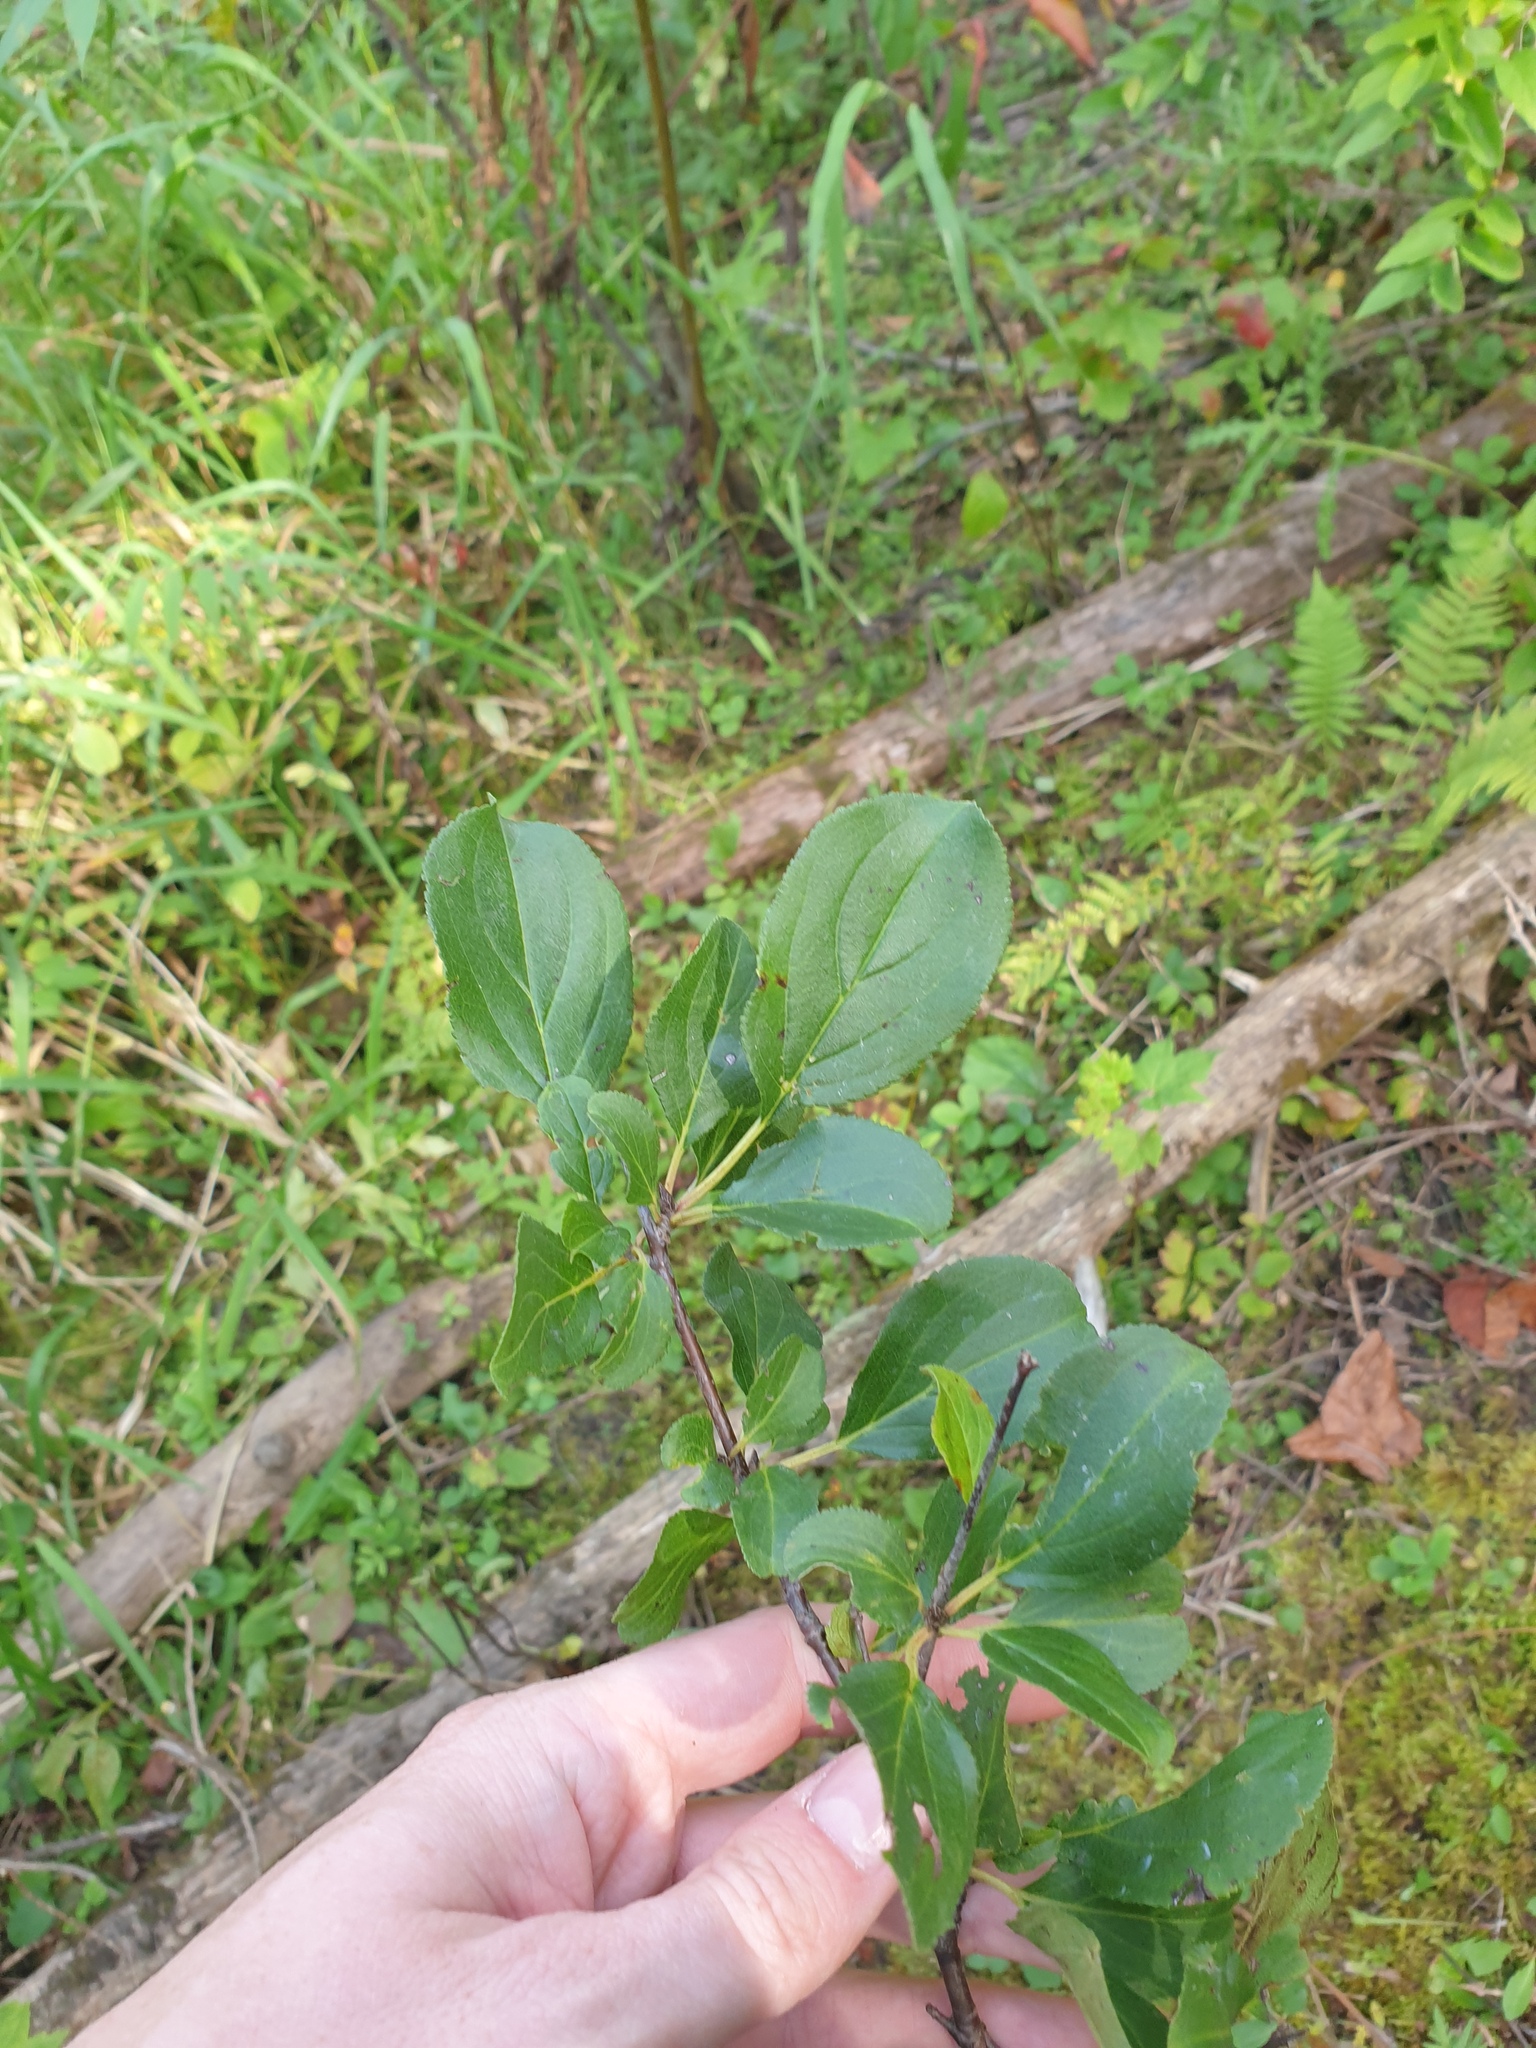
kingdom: Plantae
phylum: Tracheophyta
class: Magnoliopsida
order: Rosales
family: Rhamnaceae
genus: Rhamnus
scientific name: Rhamnus cathartica
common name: Common buckthorn
